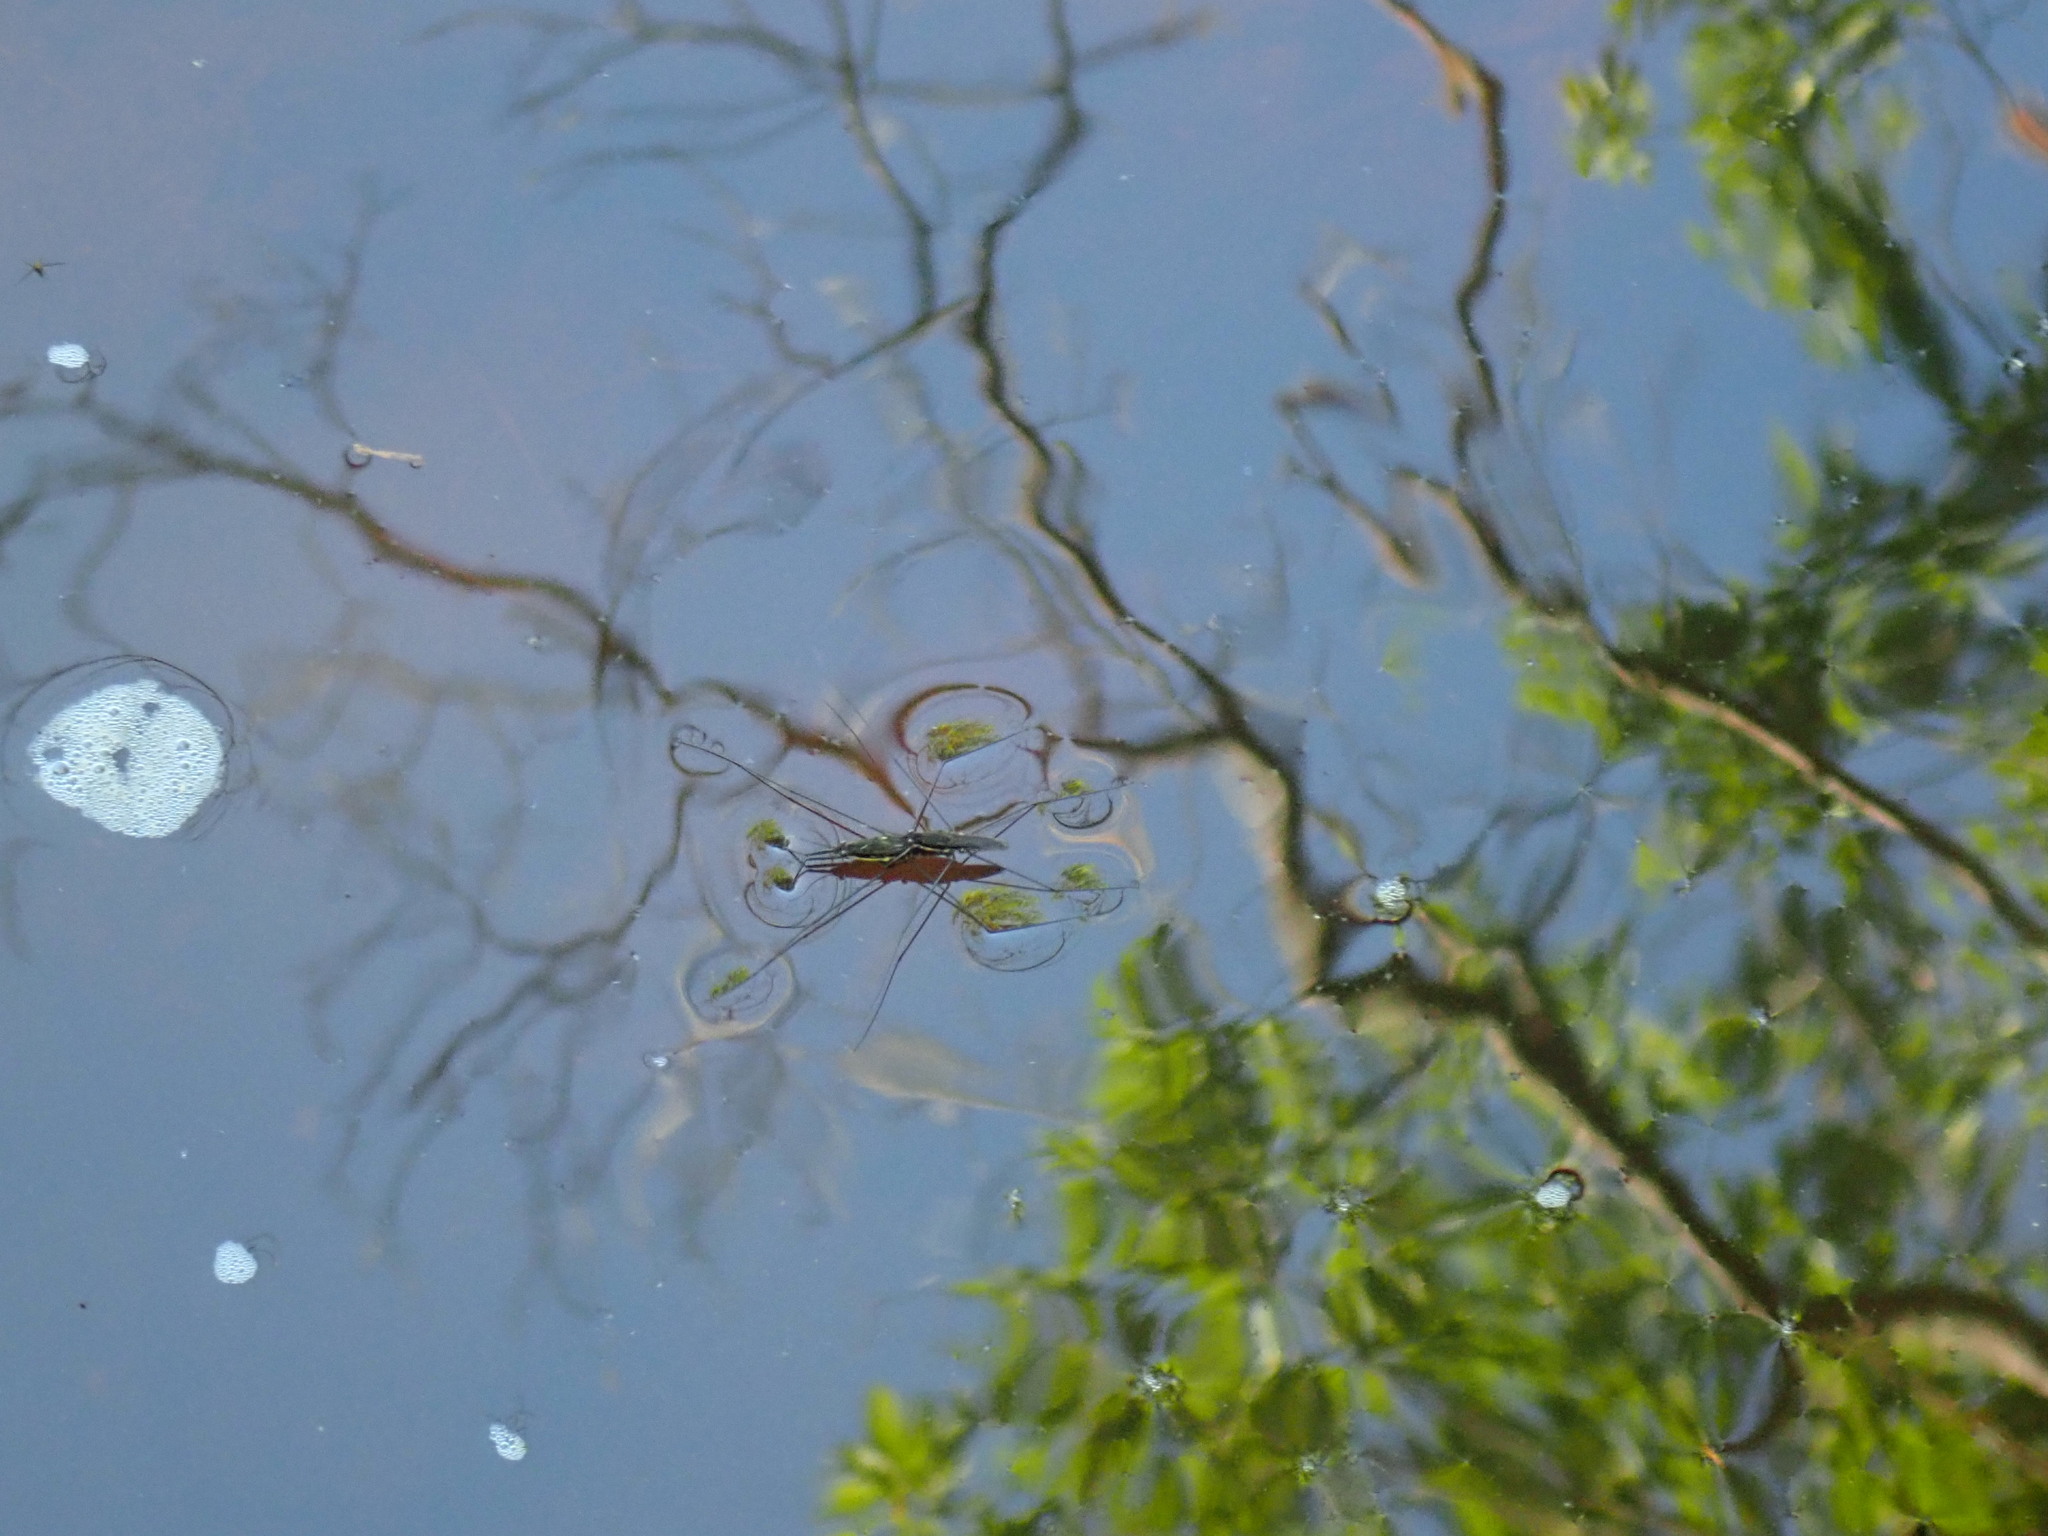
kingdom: Animalia
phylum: Arthropoda
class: Insecta
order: Hemiptera
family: Gerridae
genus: Aquarius
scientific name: Aquarius conformis
